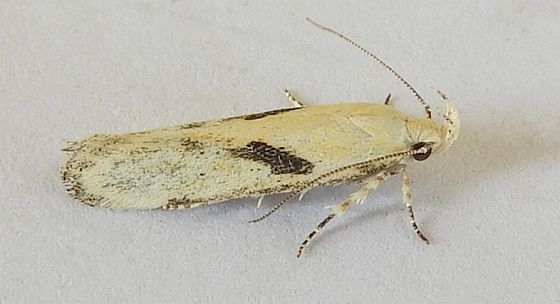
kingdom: Animalia
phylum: Arthropoda
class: Insecta
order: Lepidoptera
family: Gelechiidae
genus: Filatima
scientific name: Filatima depuratella
